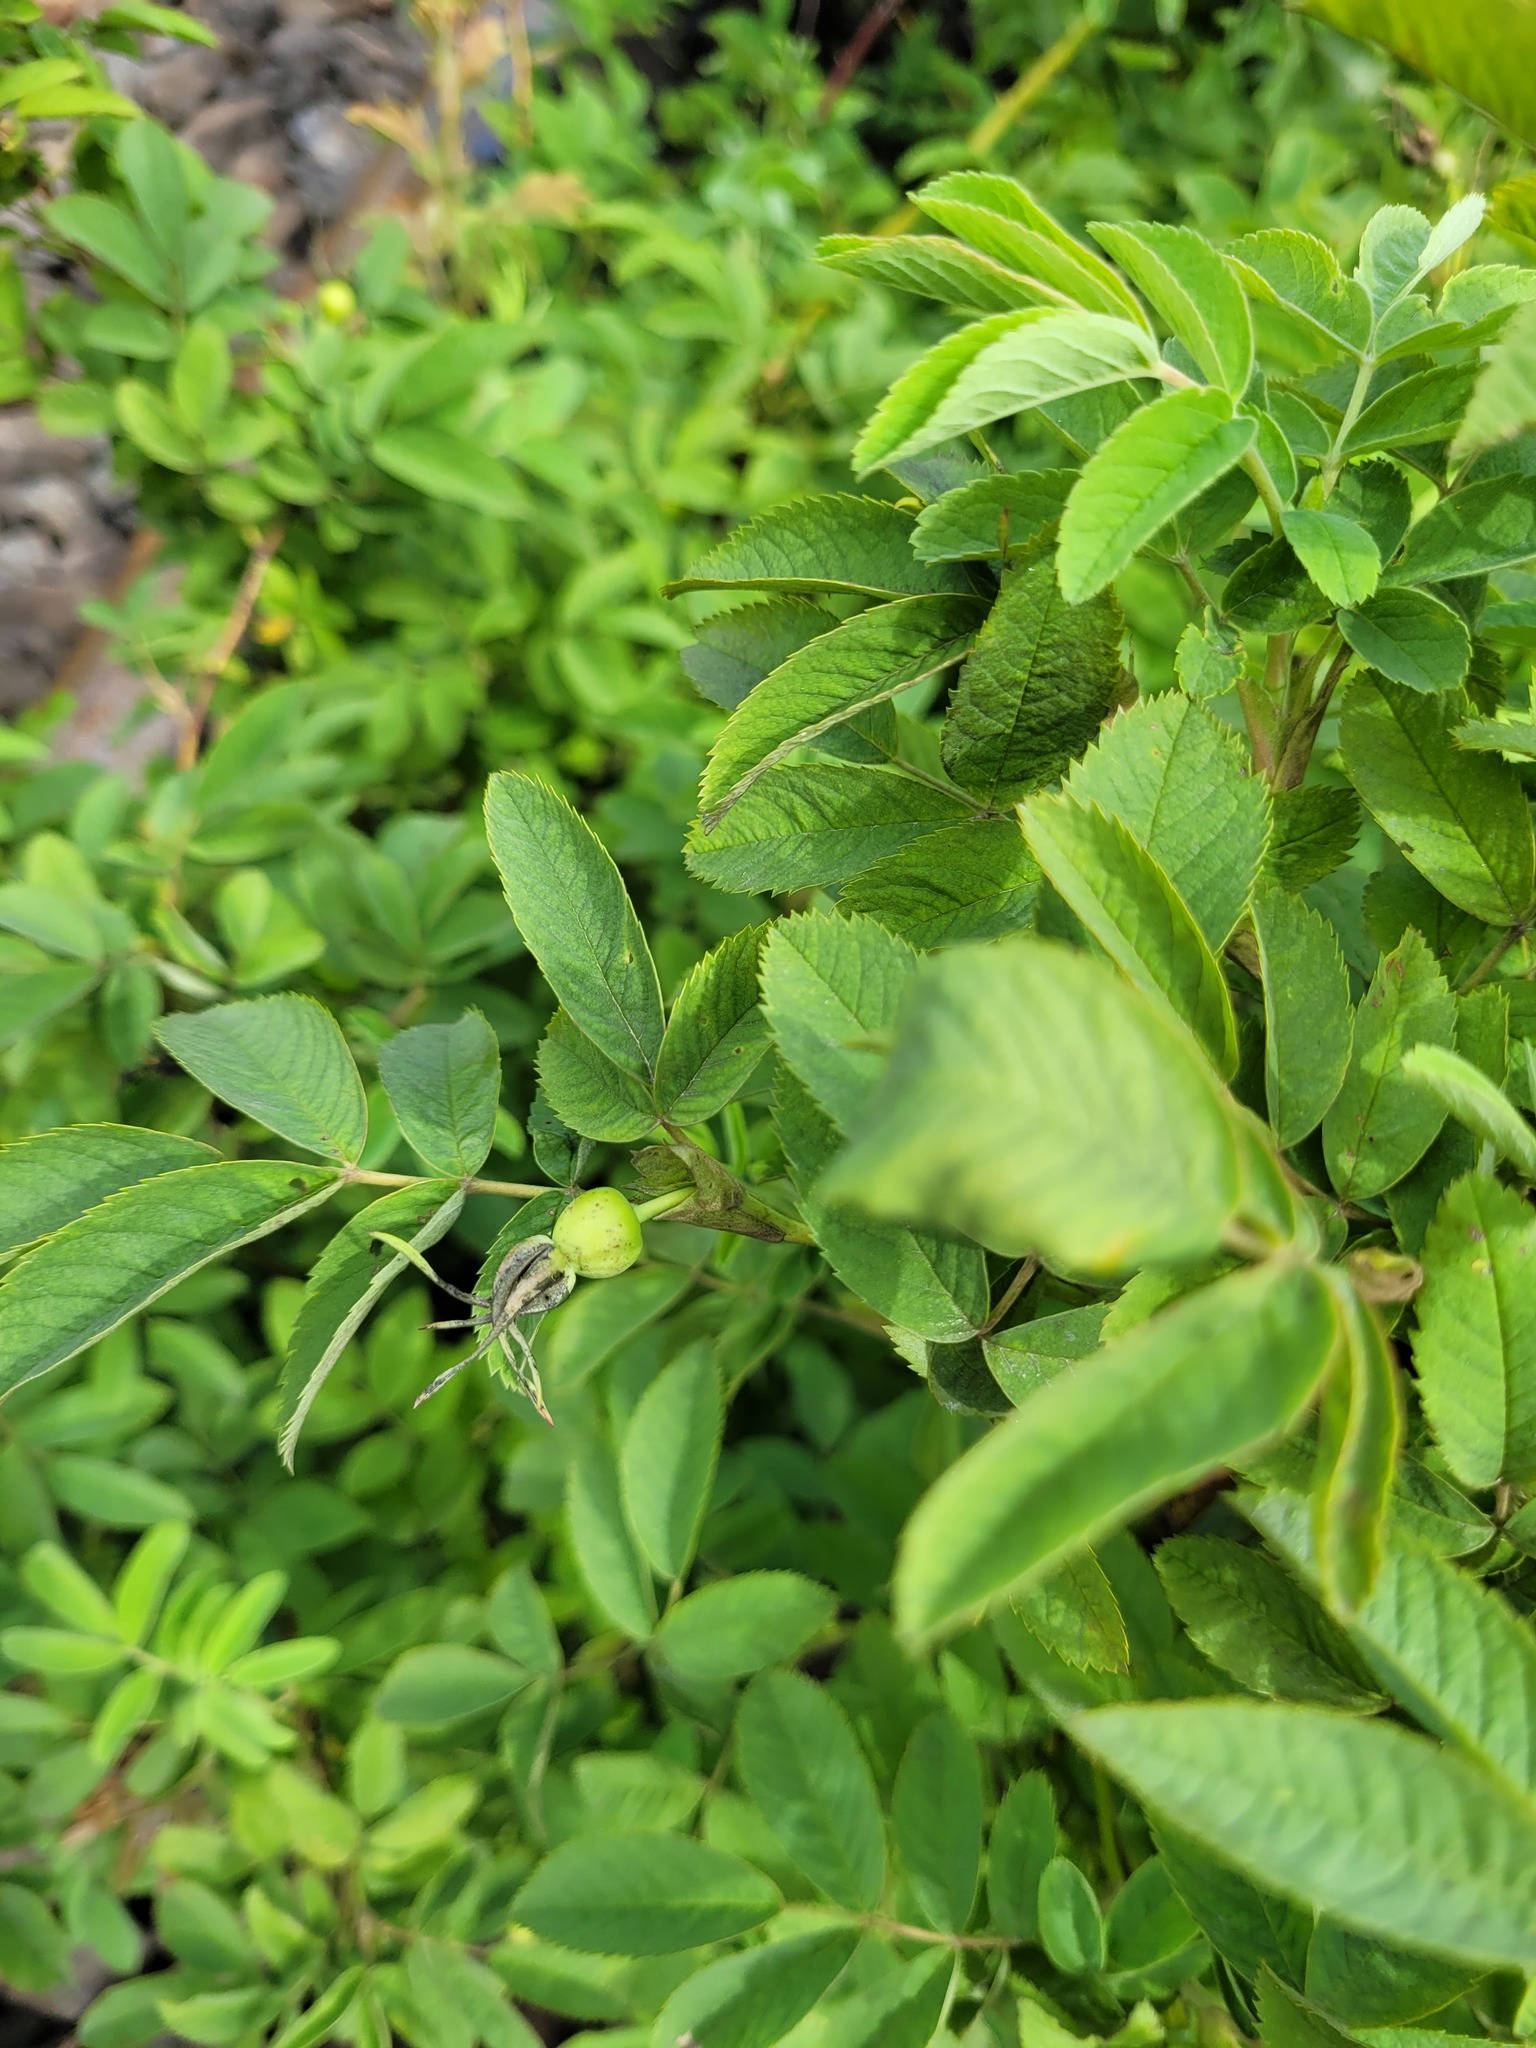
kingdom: Plantae
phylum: Tracheophyta
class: Magnoliopsida
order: Rosales
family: Rosaceae
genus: Rosa
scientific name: Rosa majalis
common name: Cinnamon rose
